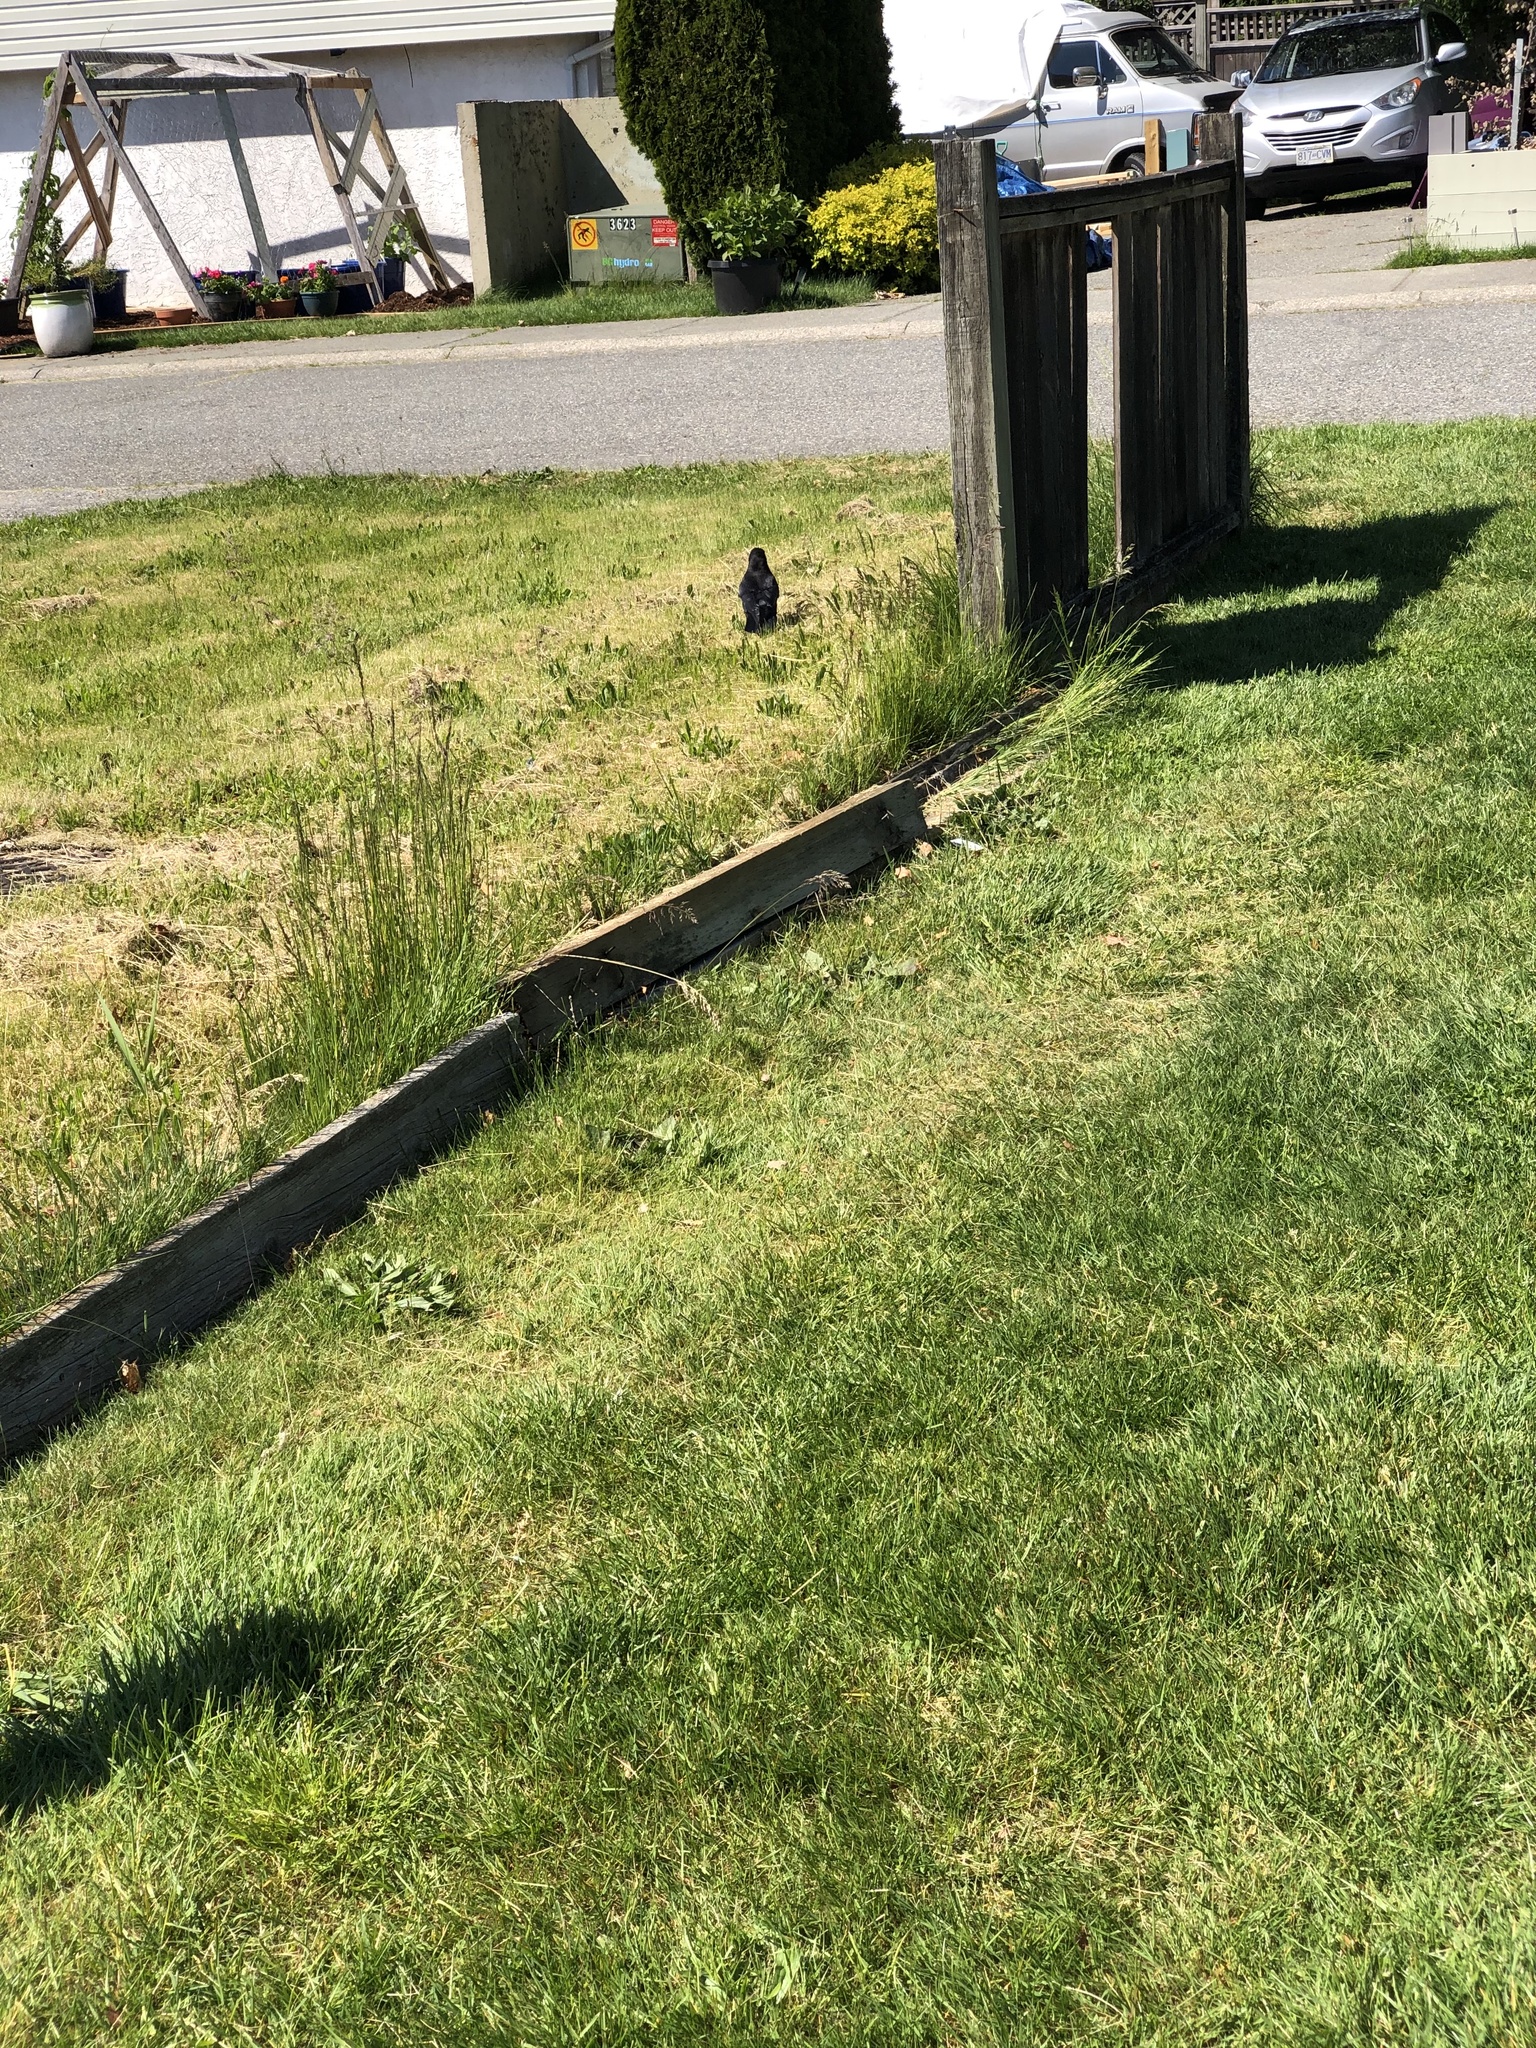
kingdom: Animalia
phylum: Chordata
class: Aves
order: Passeriformes
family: Corvidae
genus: Corvus
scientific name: Corvus brachyrhynchos
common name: American crow
